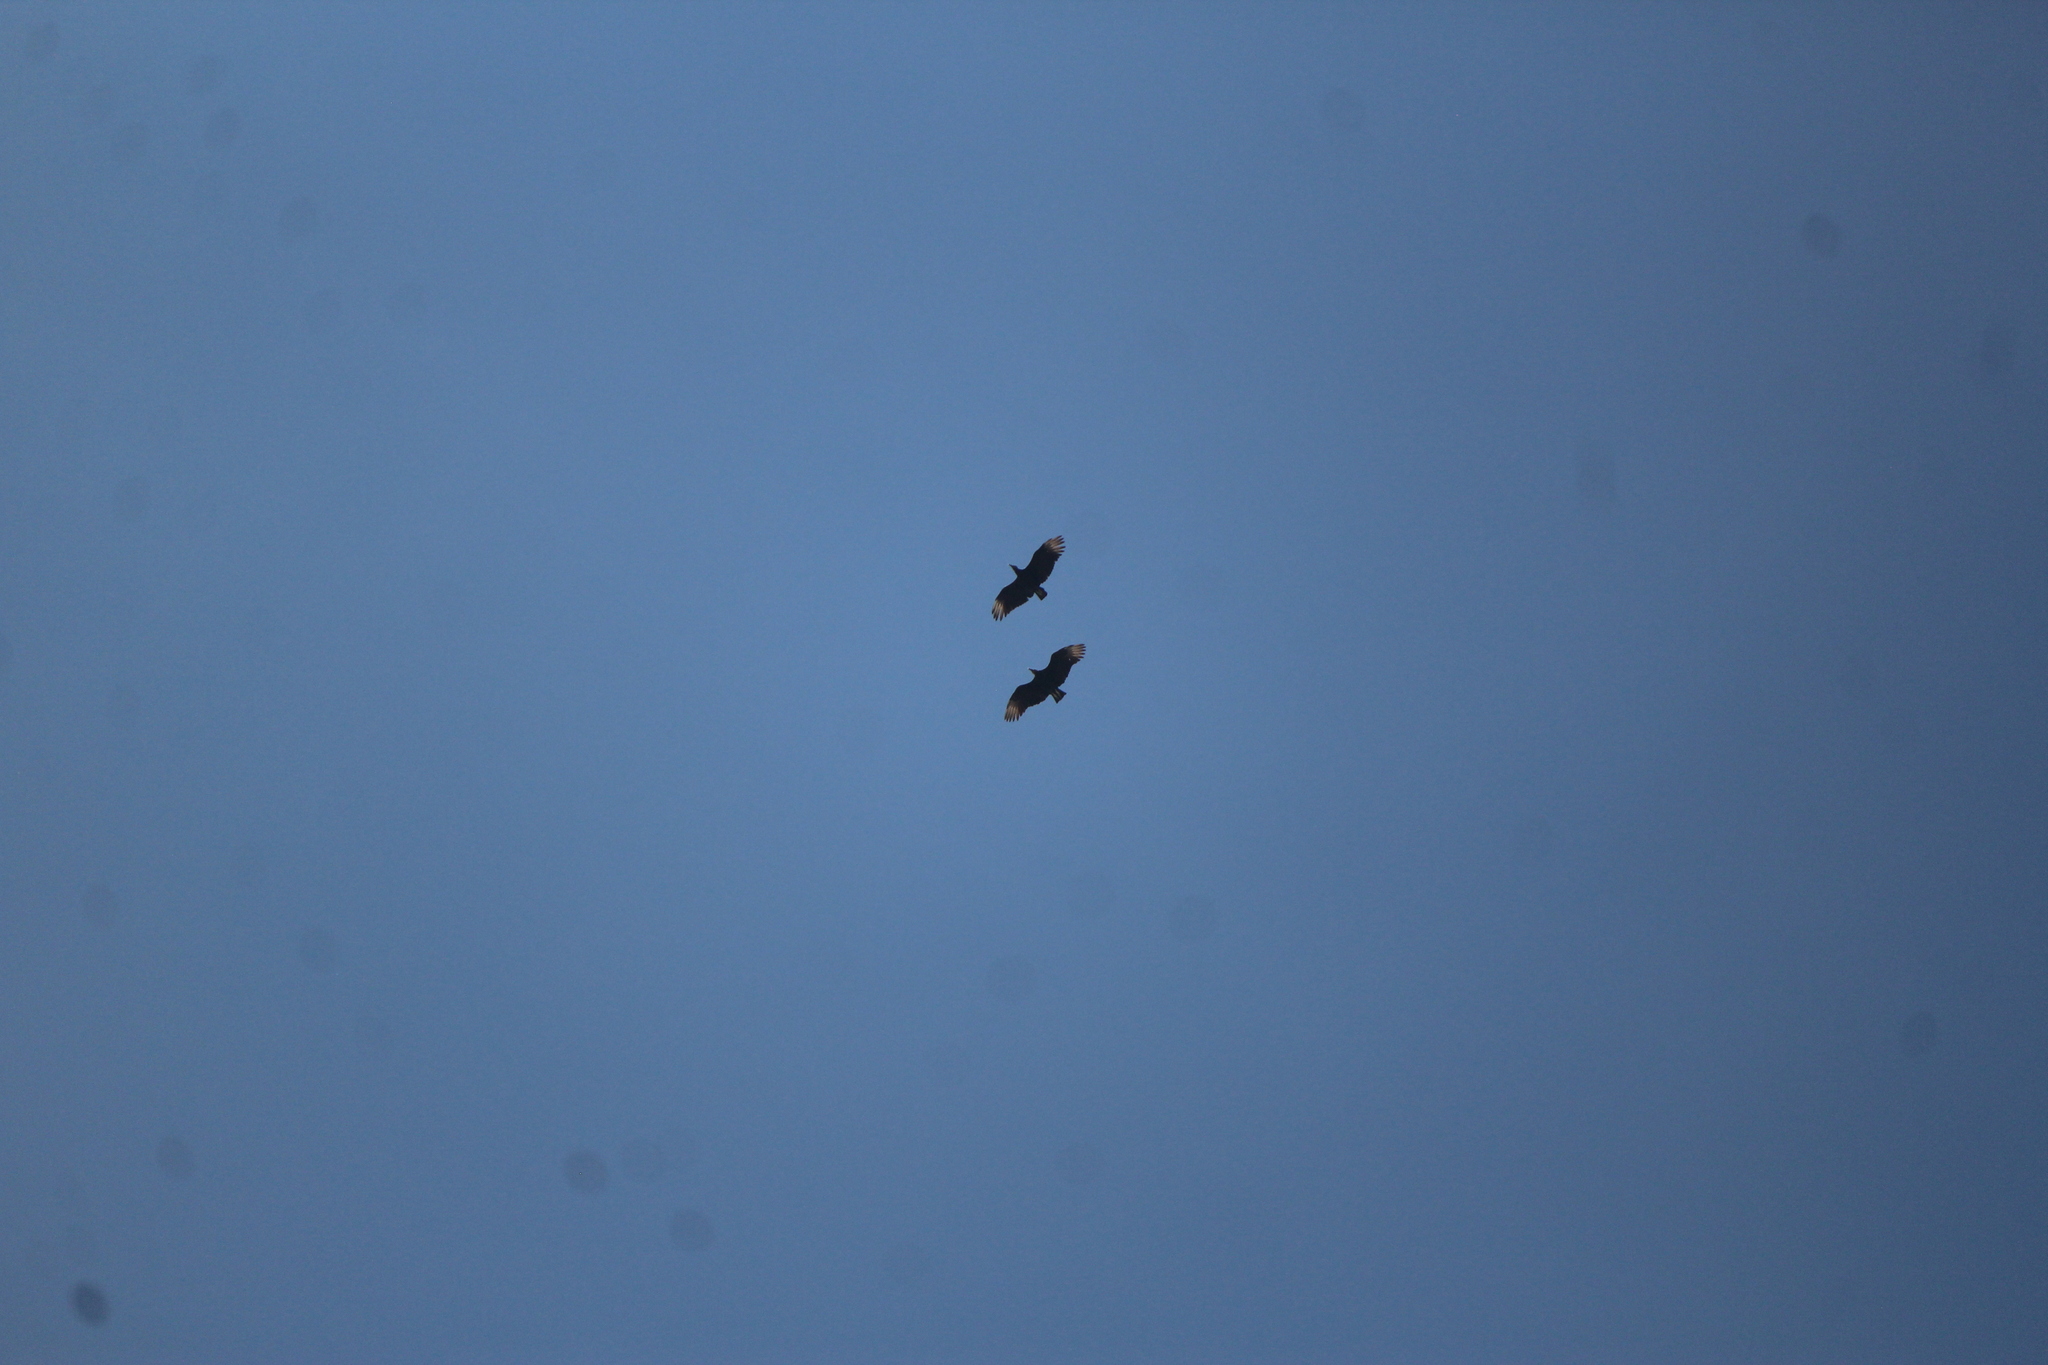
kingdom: Animalia
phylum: Chordata
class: Aves
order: Accipitriformes
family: Cathartidae
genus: Coragyps
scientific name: Coragyps atratus
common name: Black vulture
